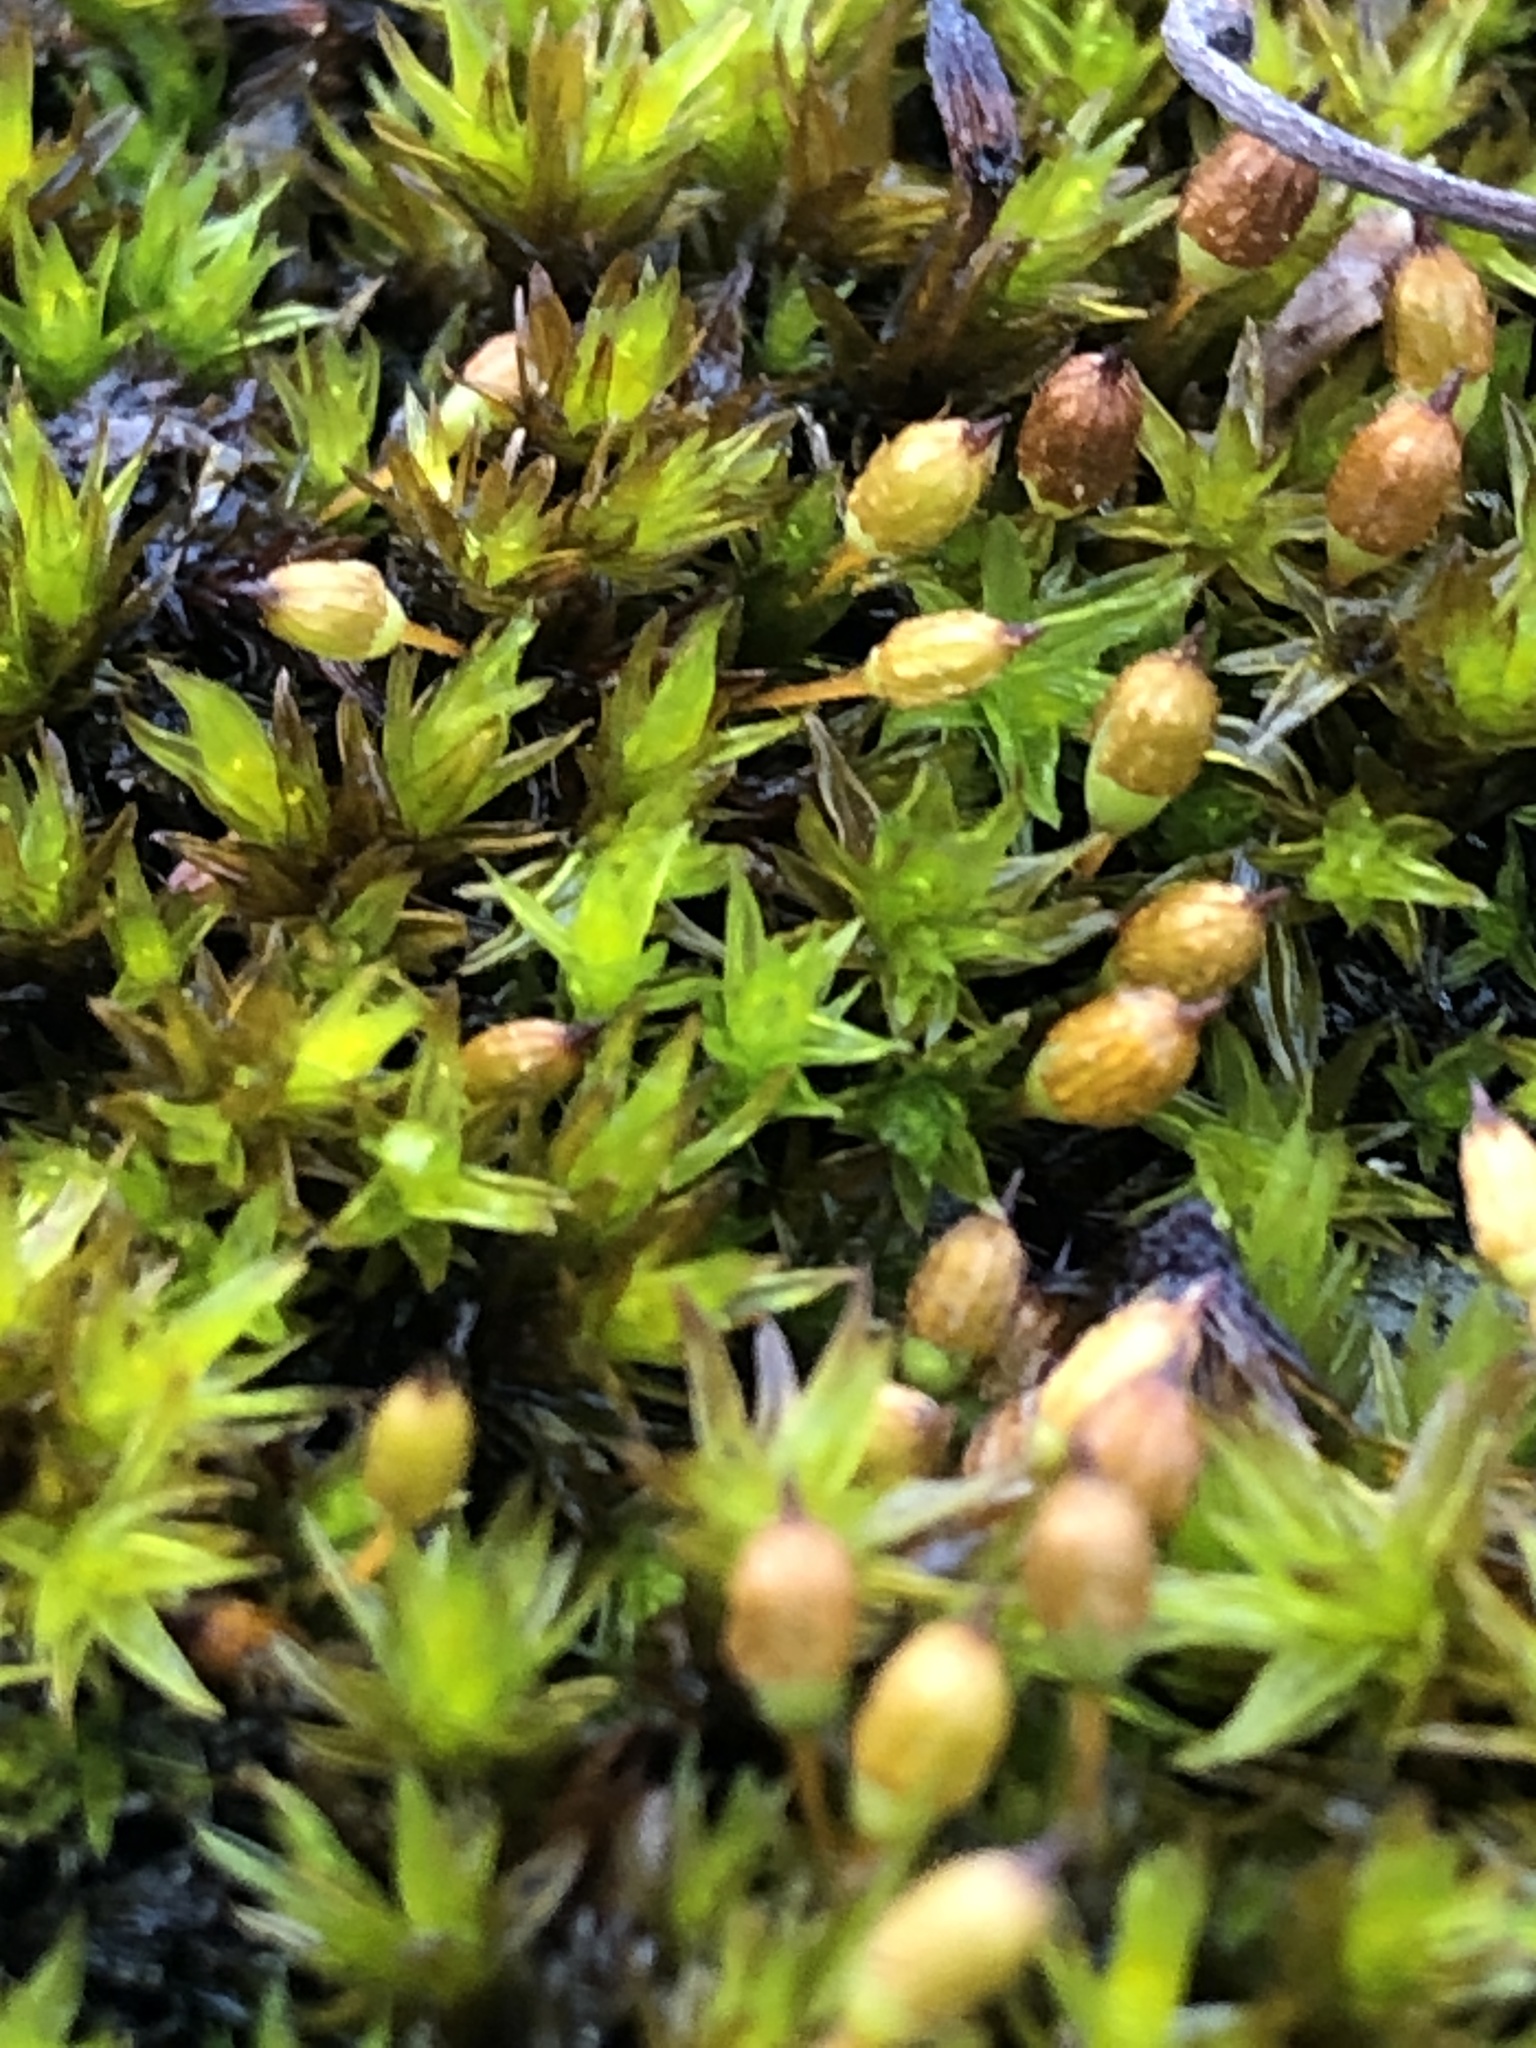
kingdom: Plantae
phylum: Bryophyta
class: Bryopsida
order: Orthotrichales
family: Orthotrichaceae
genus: Orthotrichum
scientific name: Orthotrichum anomalum
